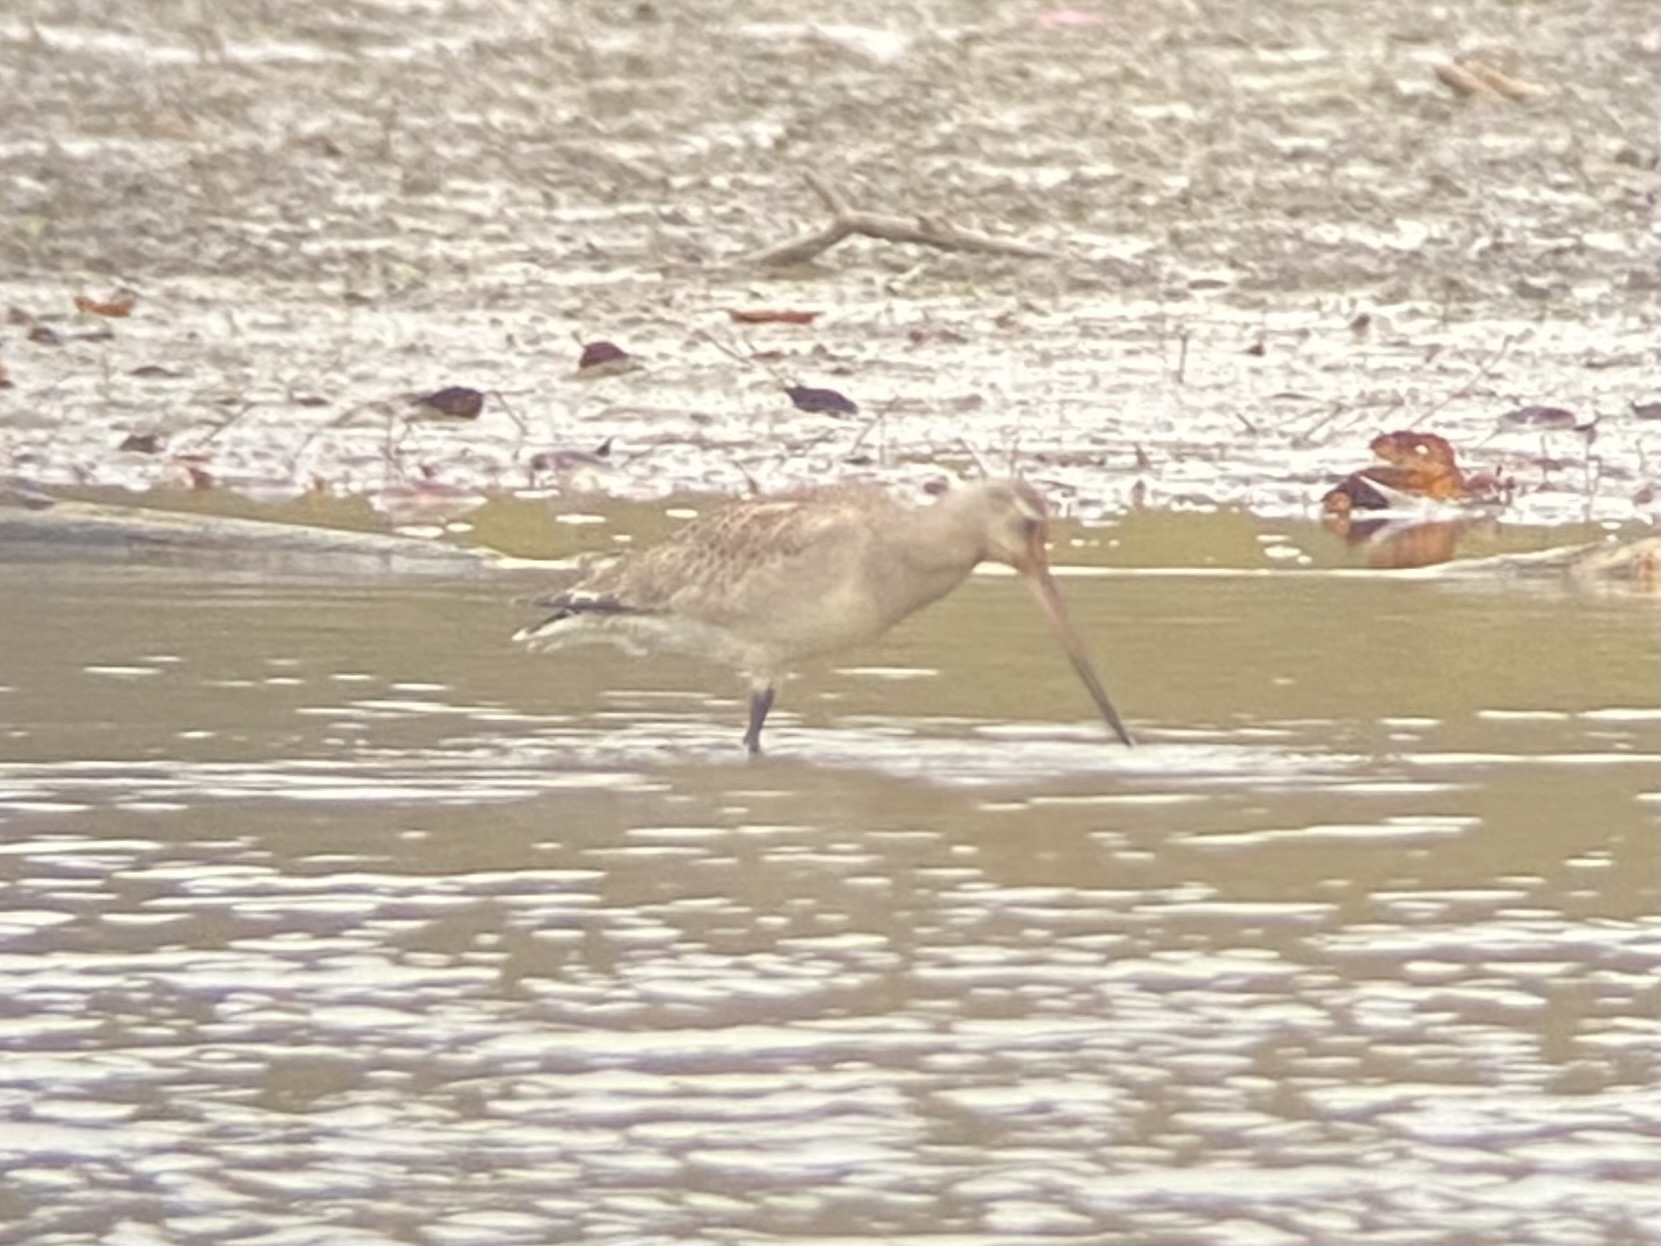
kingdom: Animalia
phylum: Chordata
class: Aves
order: Charadriiformes
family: Scolopacidae
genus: Limosa
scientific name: Limosa haemastica
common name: Hudsonian godwit
